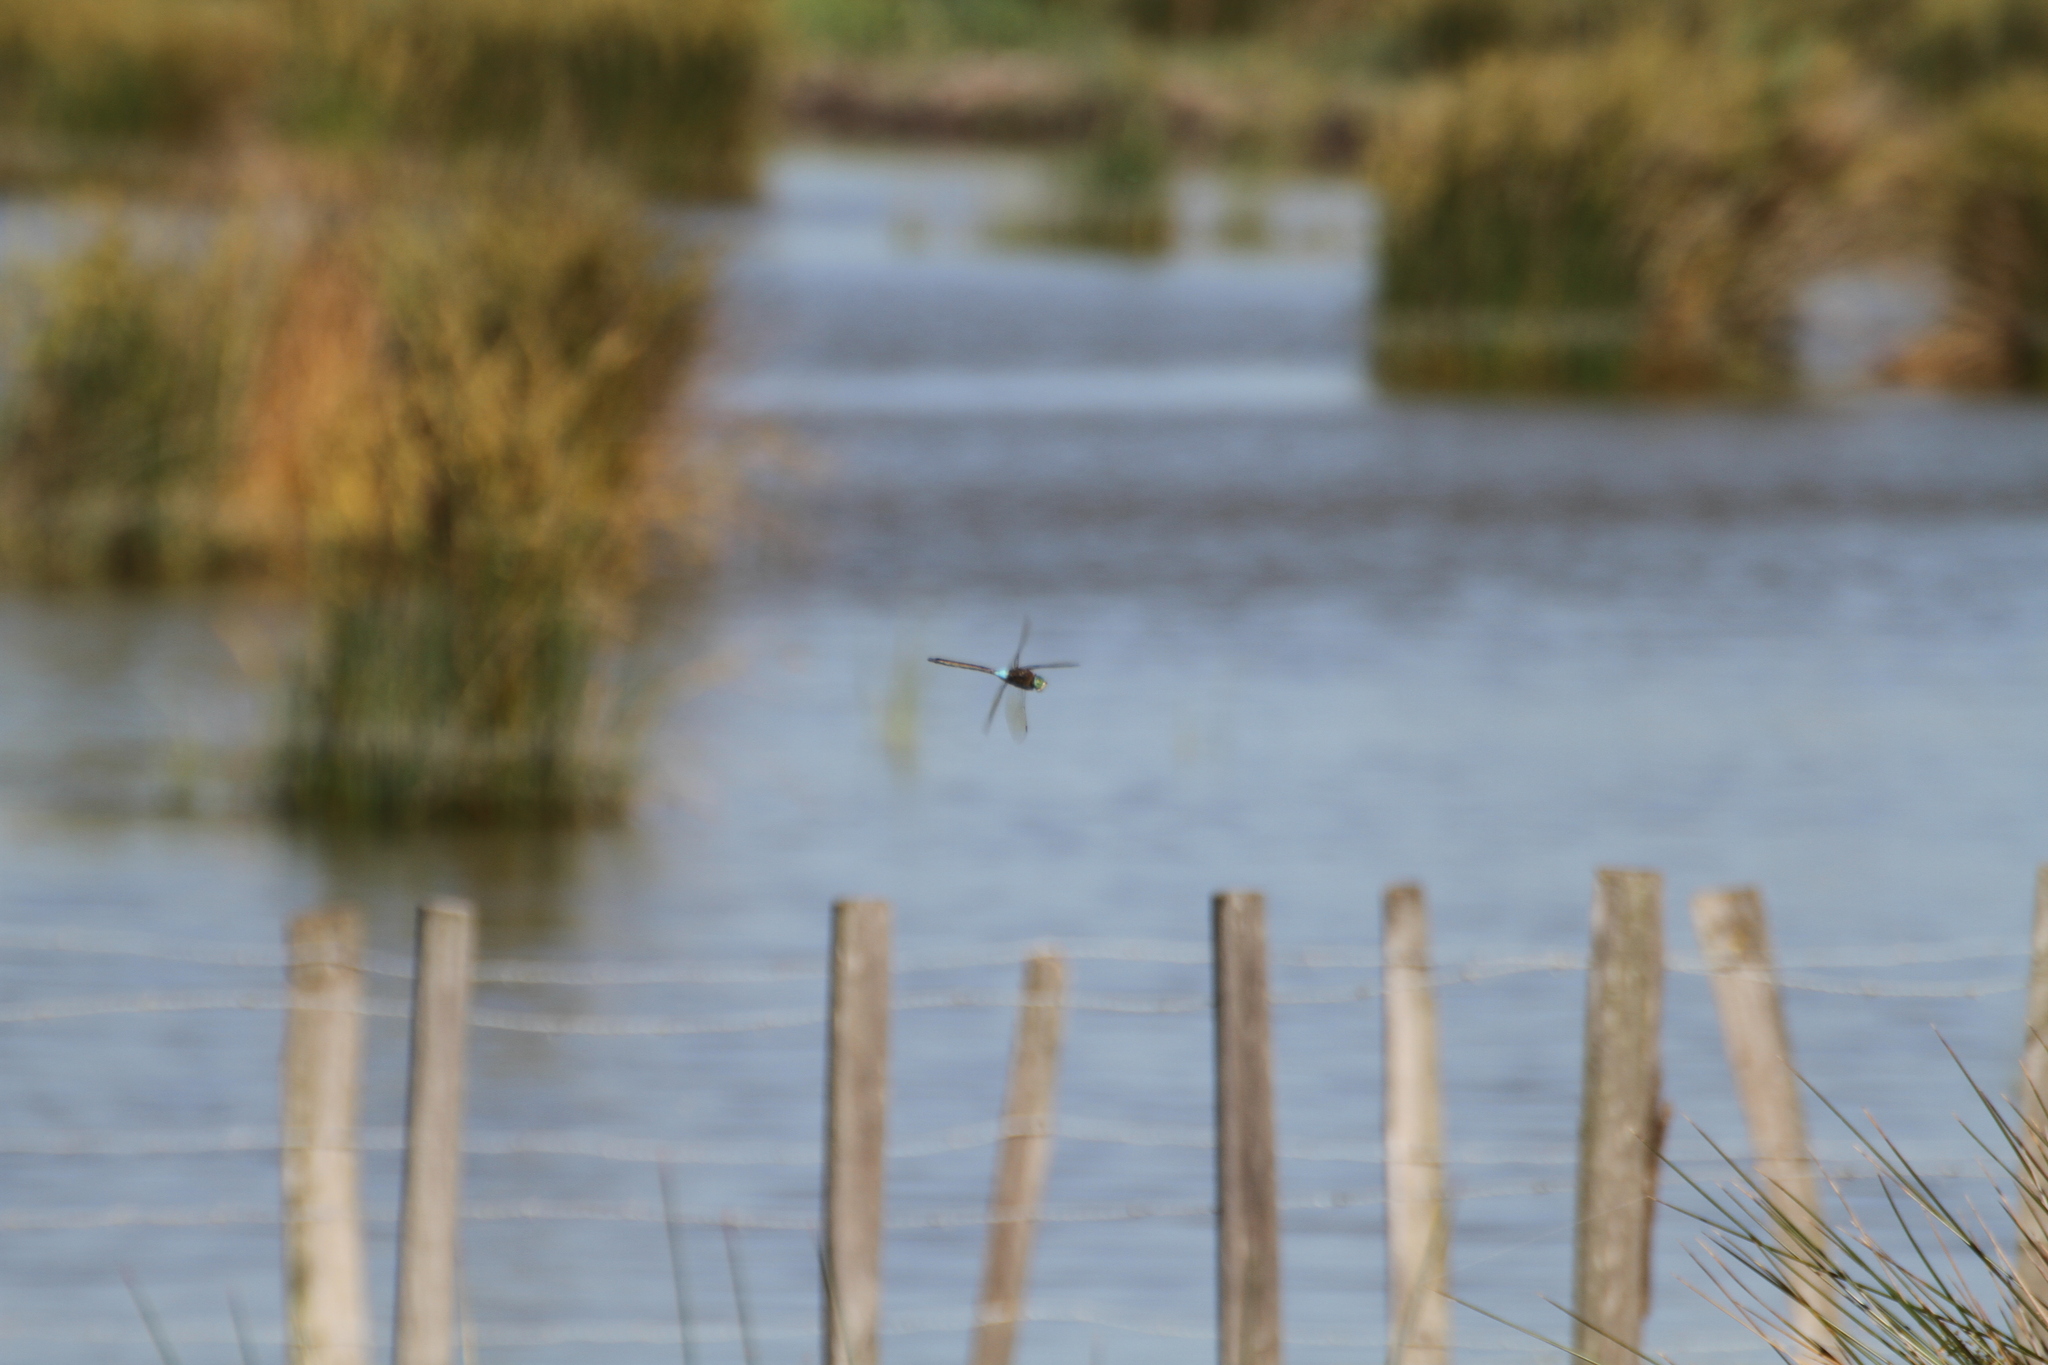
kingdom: Animalia
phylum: Arthropoda
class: Insecta
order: Odonata
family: Aeshnidae
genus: Anax
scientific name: Anax parthenope
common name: Lesser emperor
